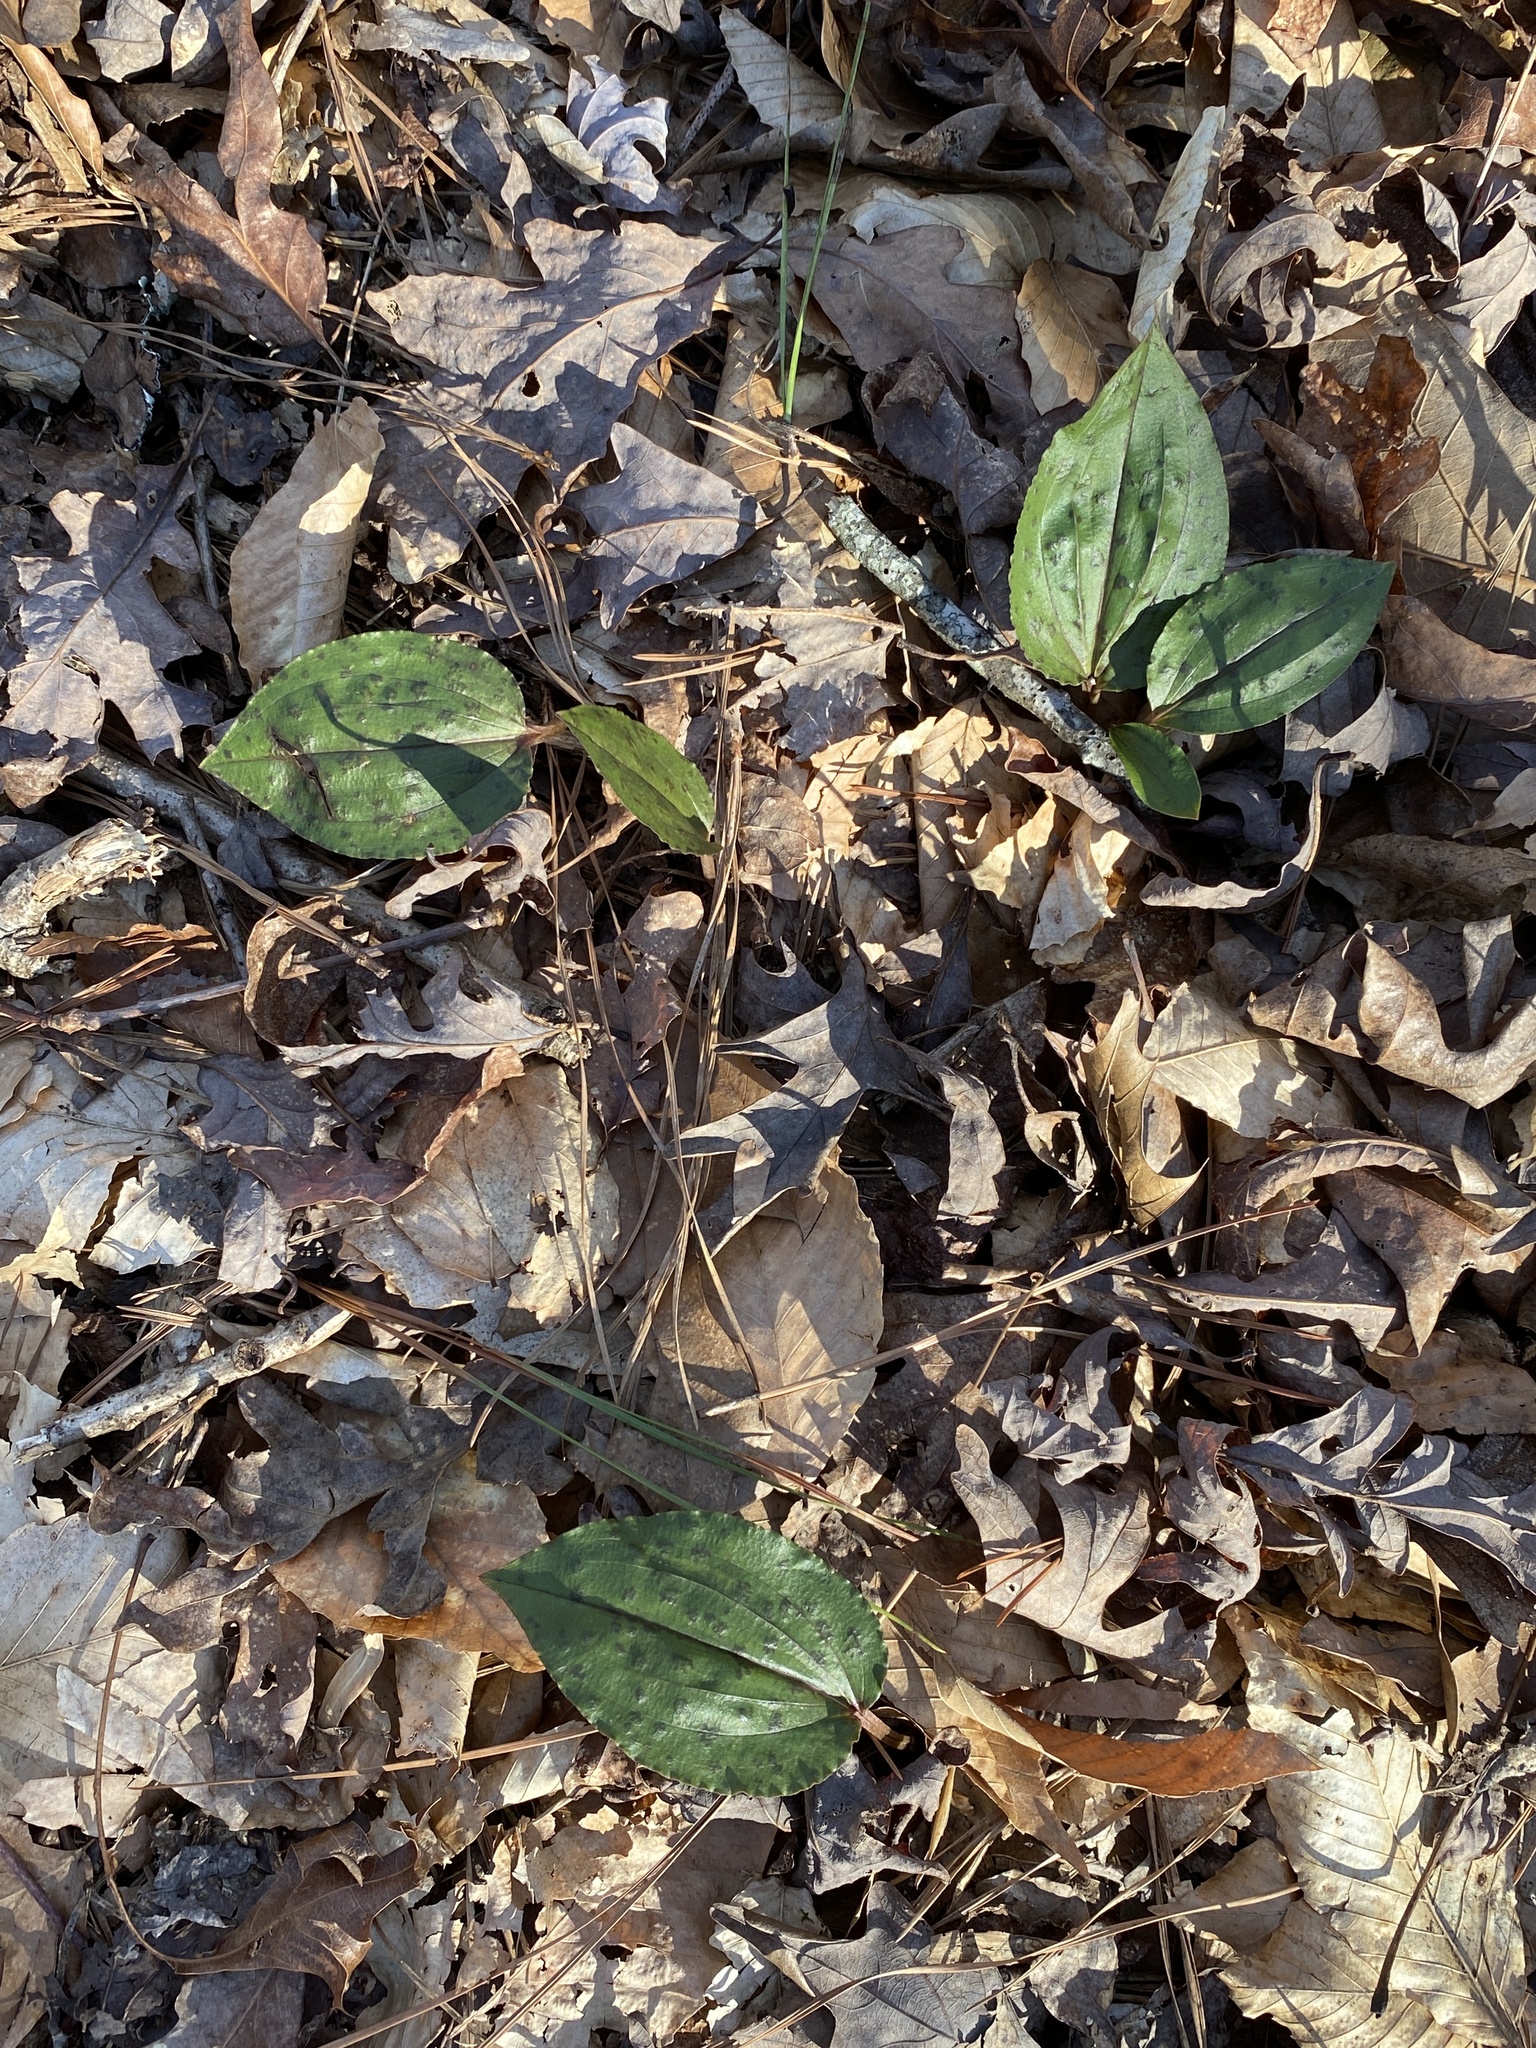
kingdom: Plantae
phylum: Tracheophyta
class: Liliopsida
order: Asparagales
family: Orchidaceae
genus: Tipularia
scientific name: Tipularia discolor
